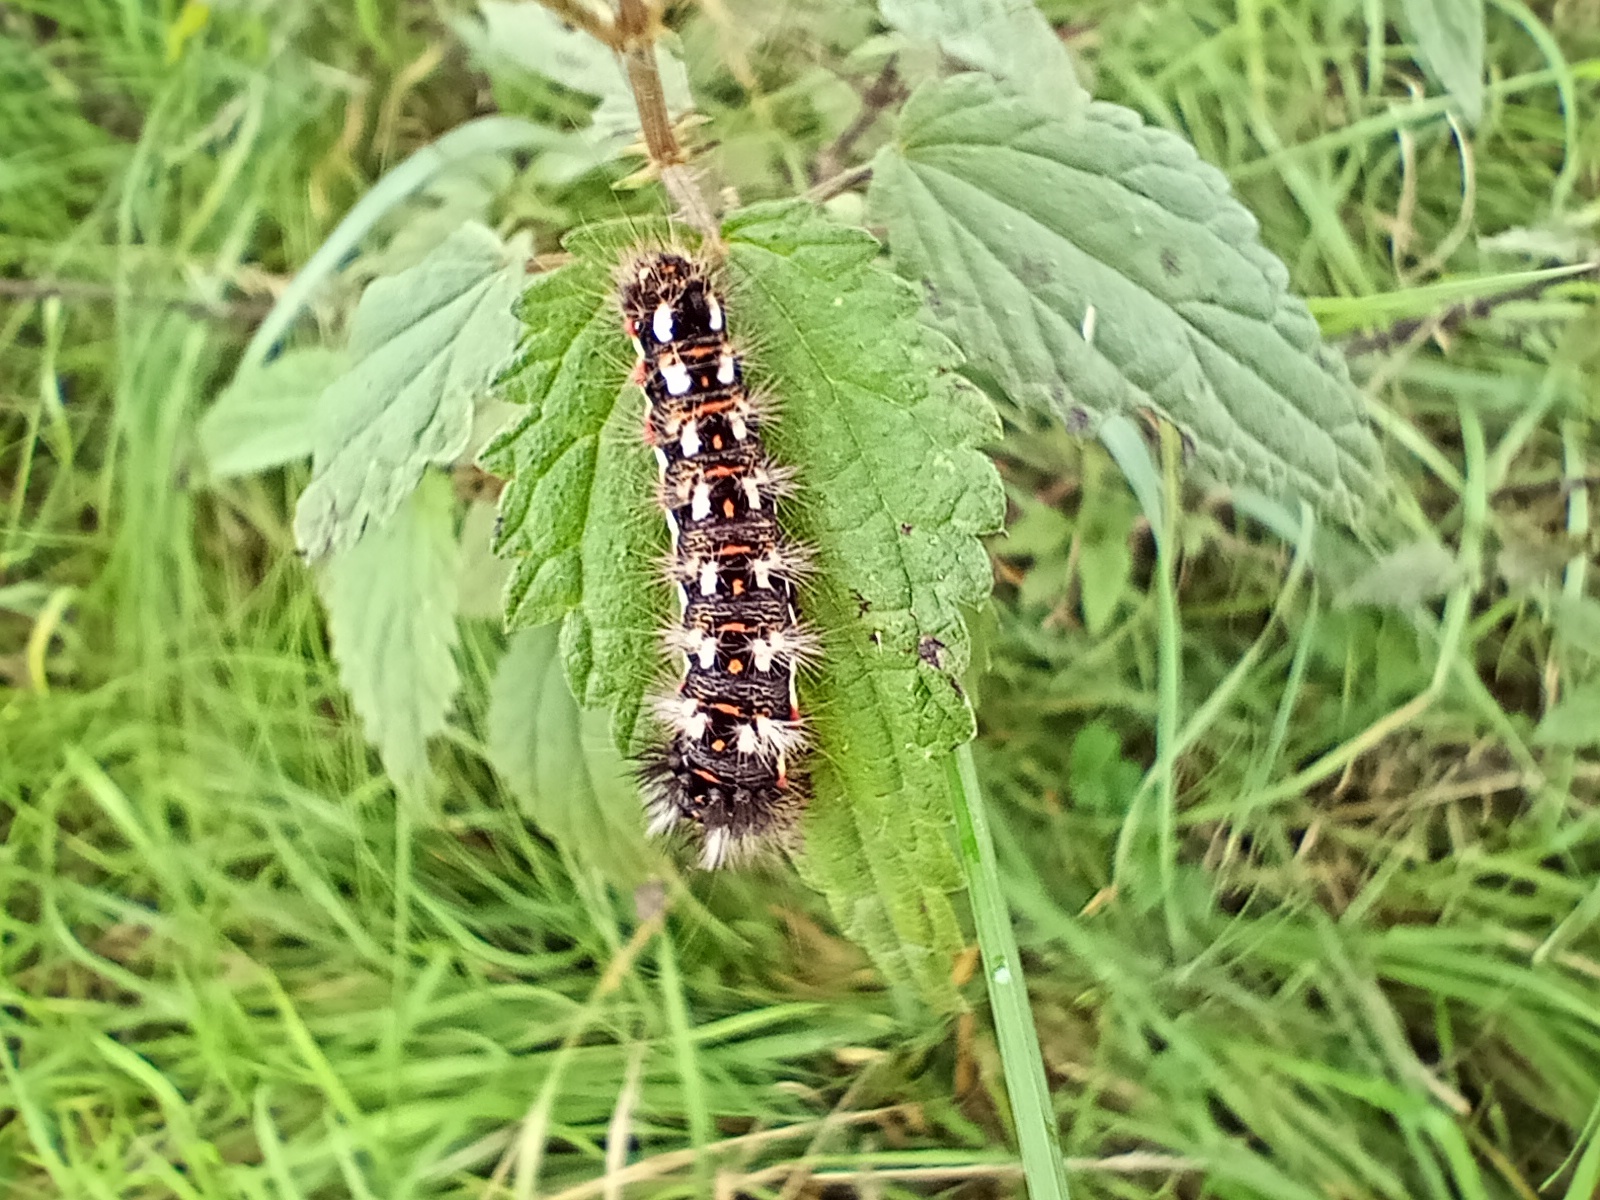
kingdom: Animalia
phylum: Arthropoda
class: Insecta
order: Lepidoptera
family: Noctuidae
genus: Acronicta
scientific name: Acronicta rumicis
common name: Knot grass
